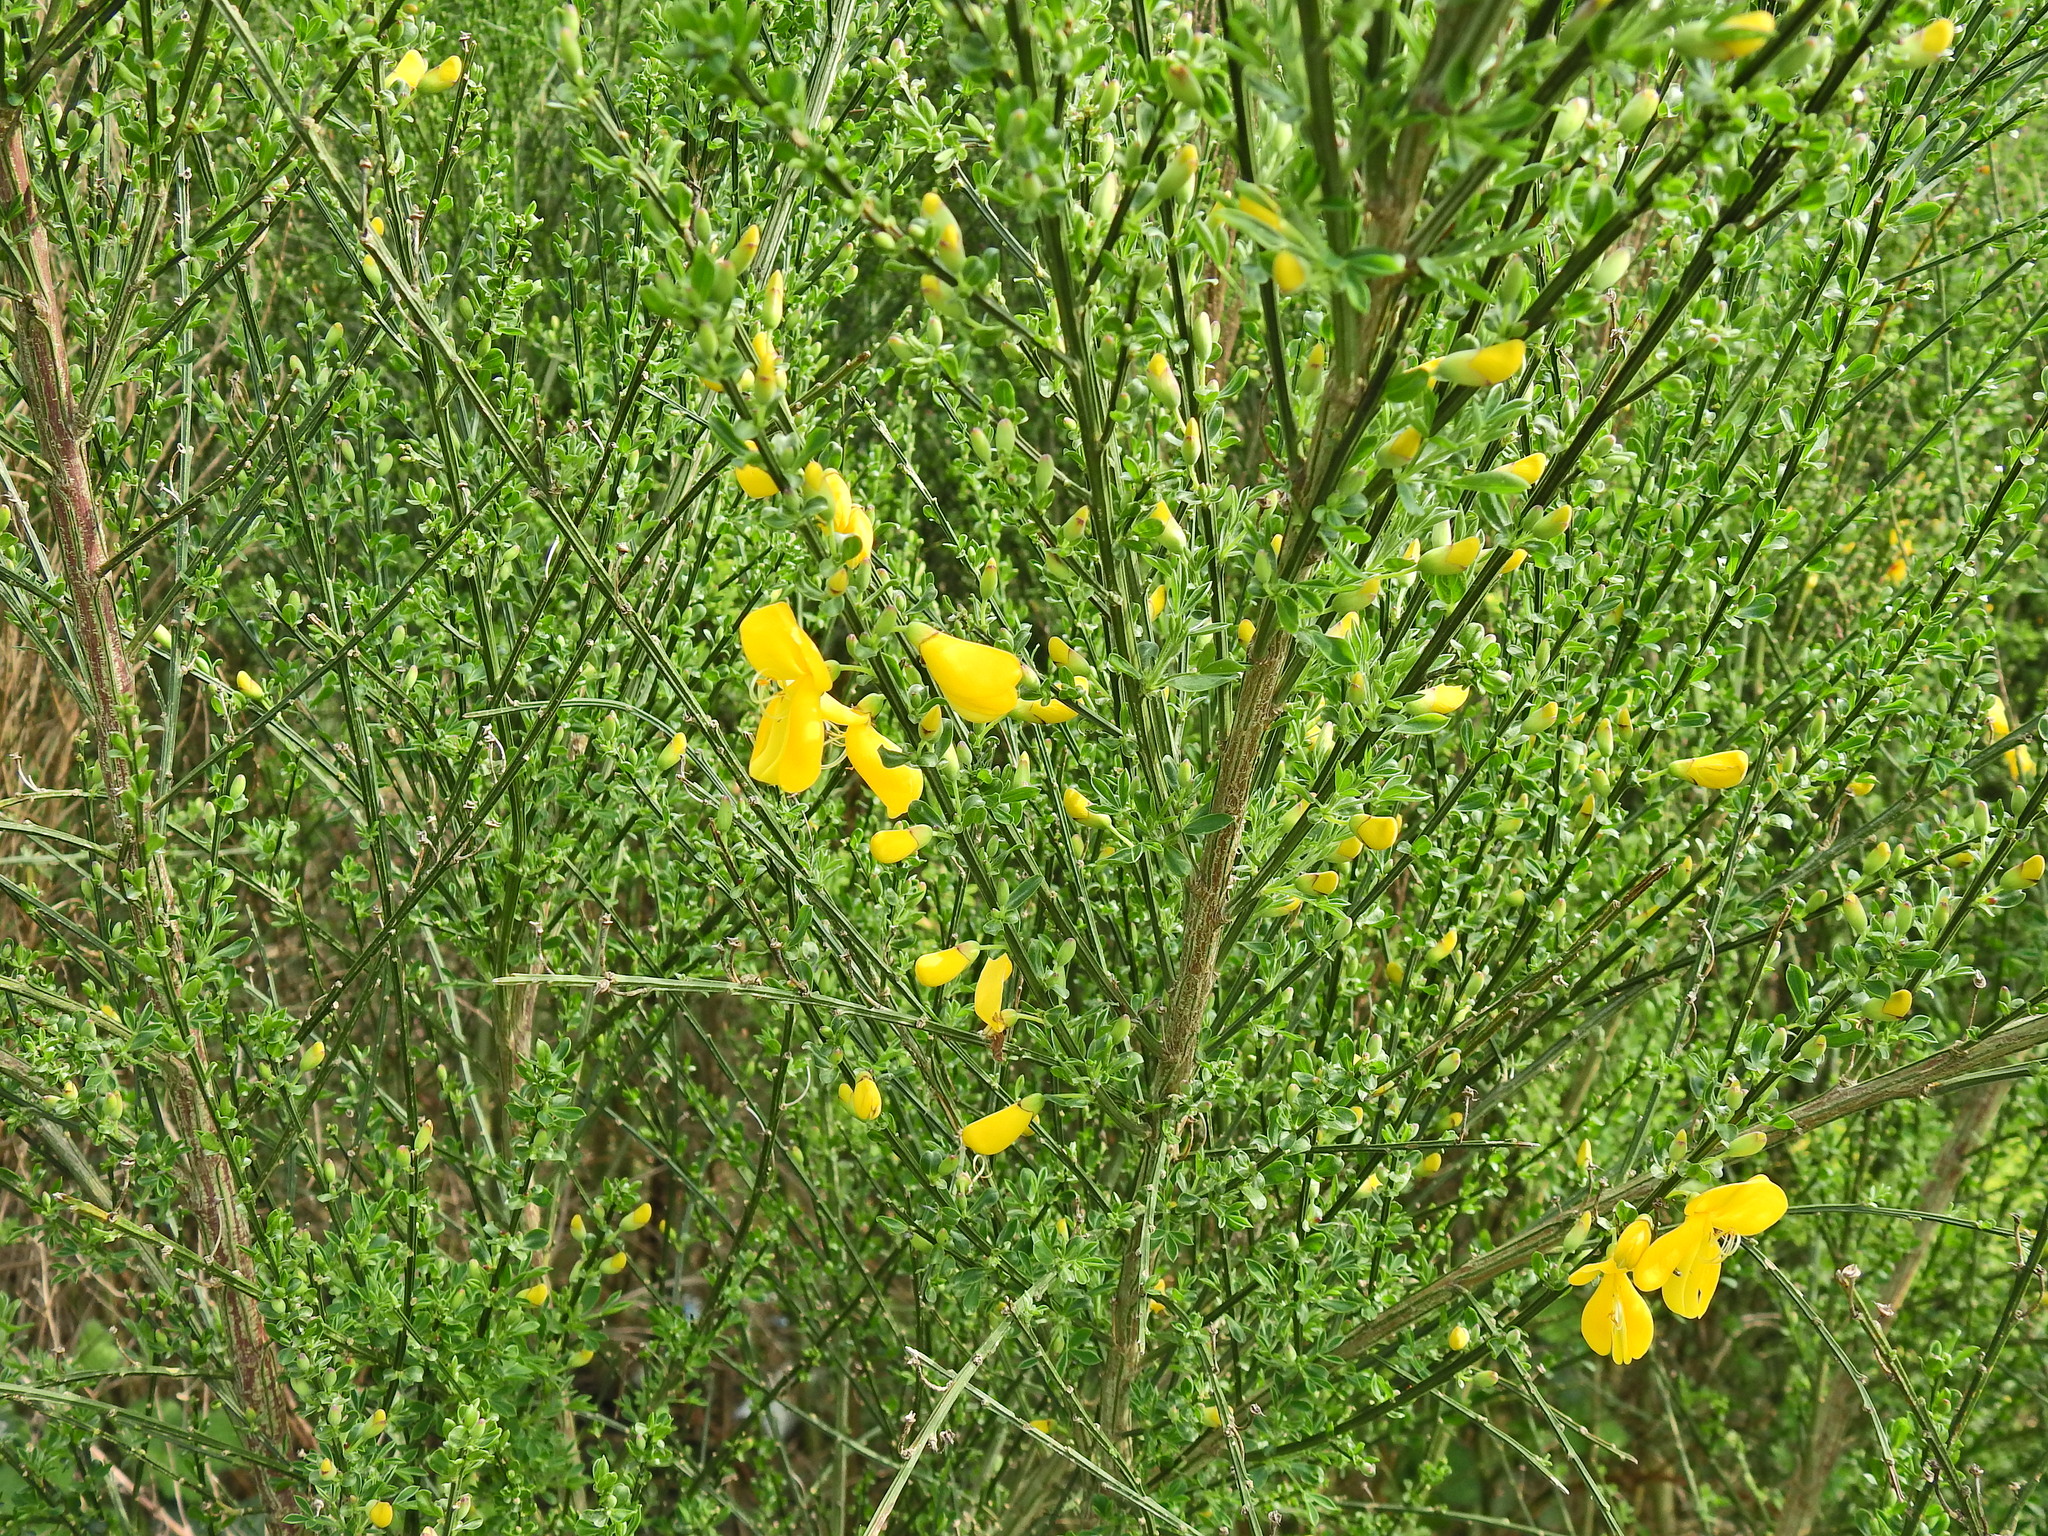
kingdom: Plantae
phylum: Tracheophyta
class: Magnoliopsida
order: Fabales
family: Fabaceae
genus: Cytisus
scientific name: Cytisus scoparius
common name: Scotch broom
